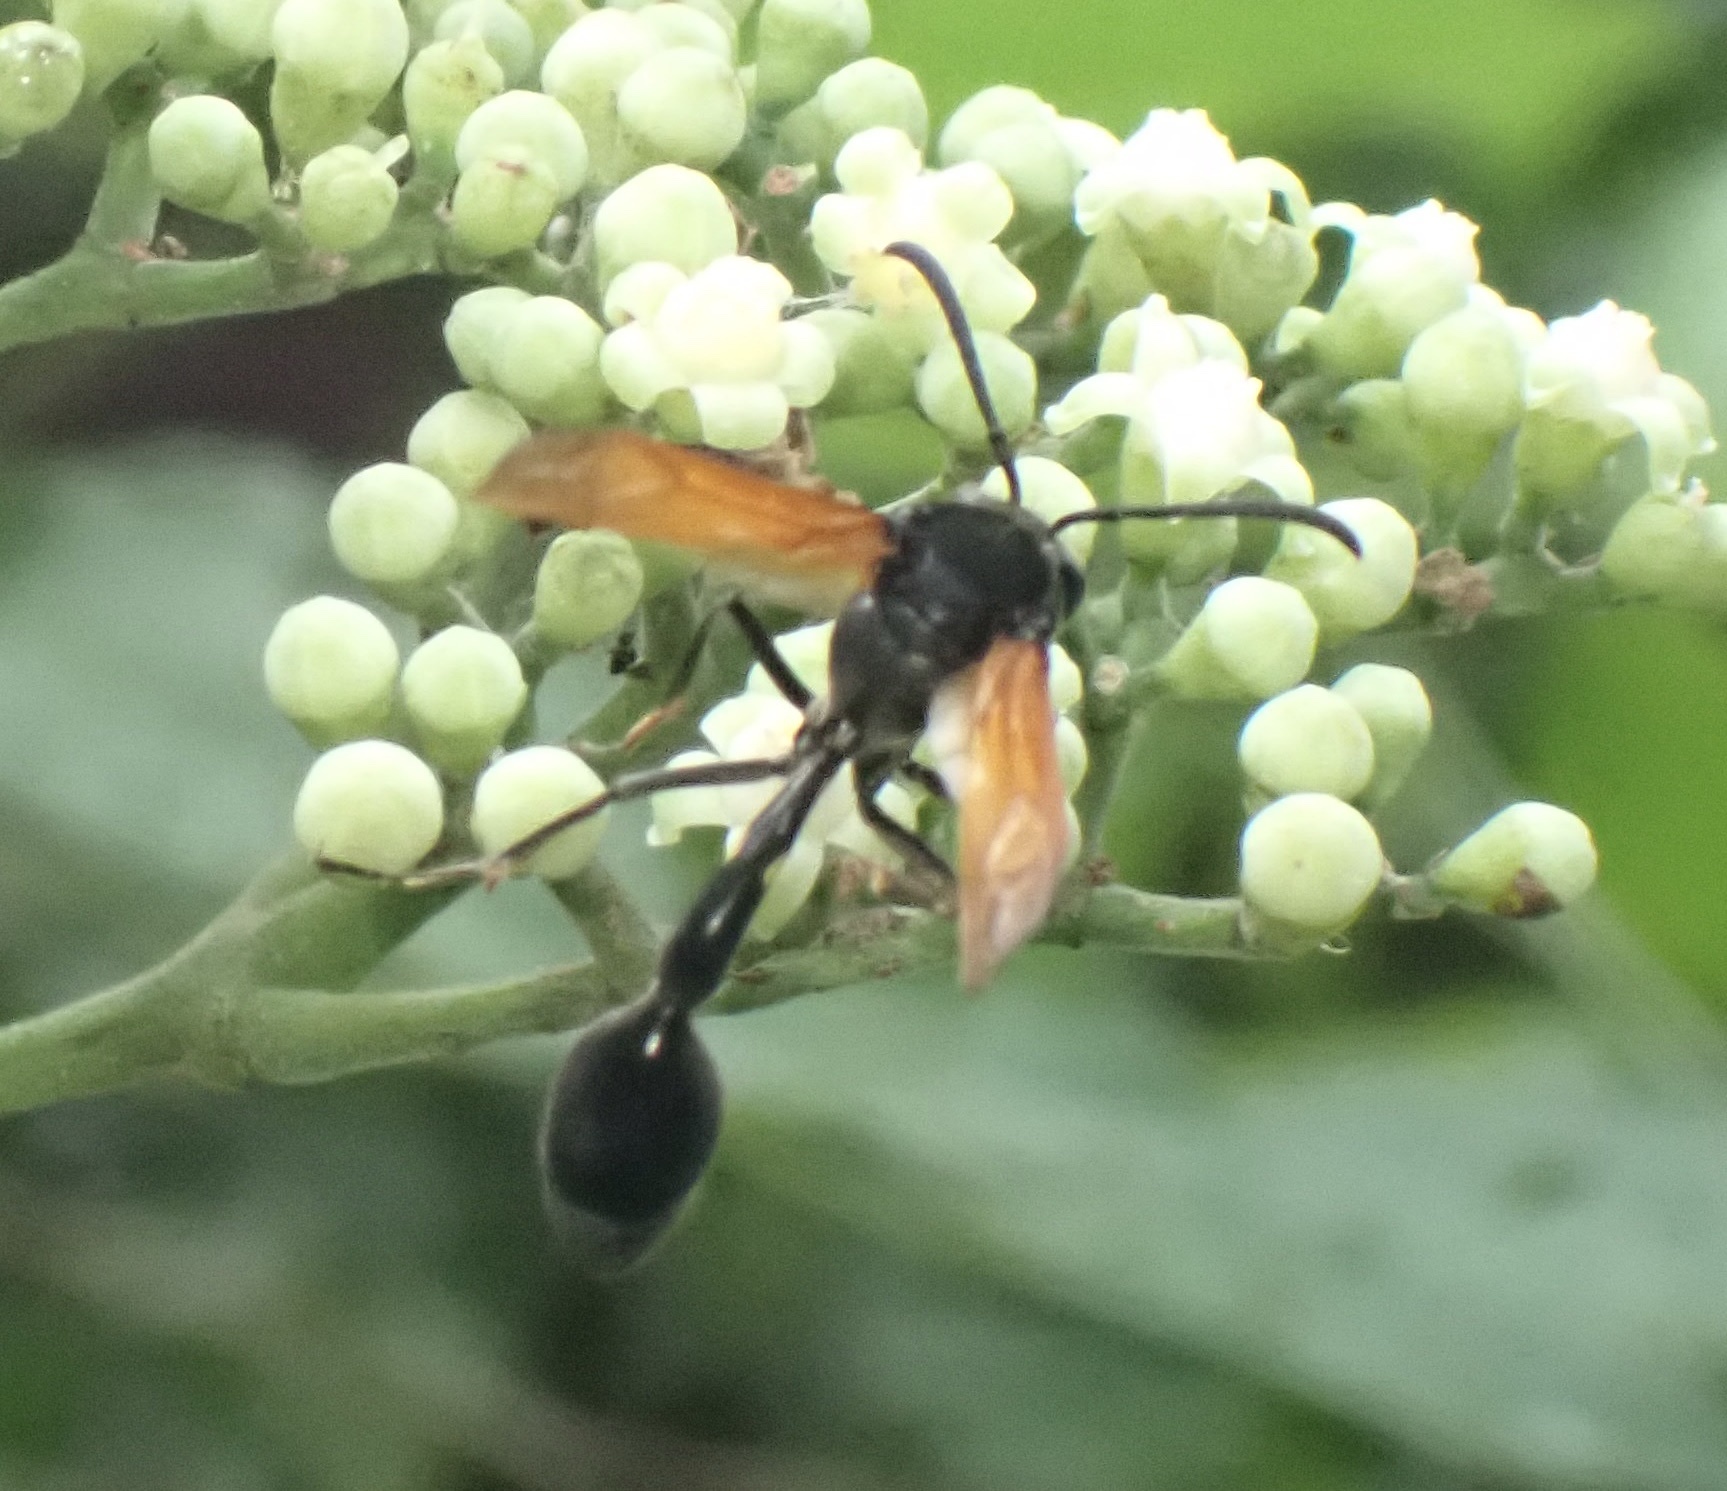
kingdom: Animalia
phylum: Arthropoda
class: Insecta
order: Hymenoptera
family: Eumenidae
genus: Phimenes
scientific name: Phimenes fulvipennis
